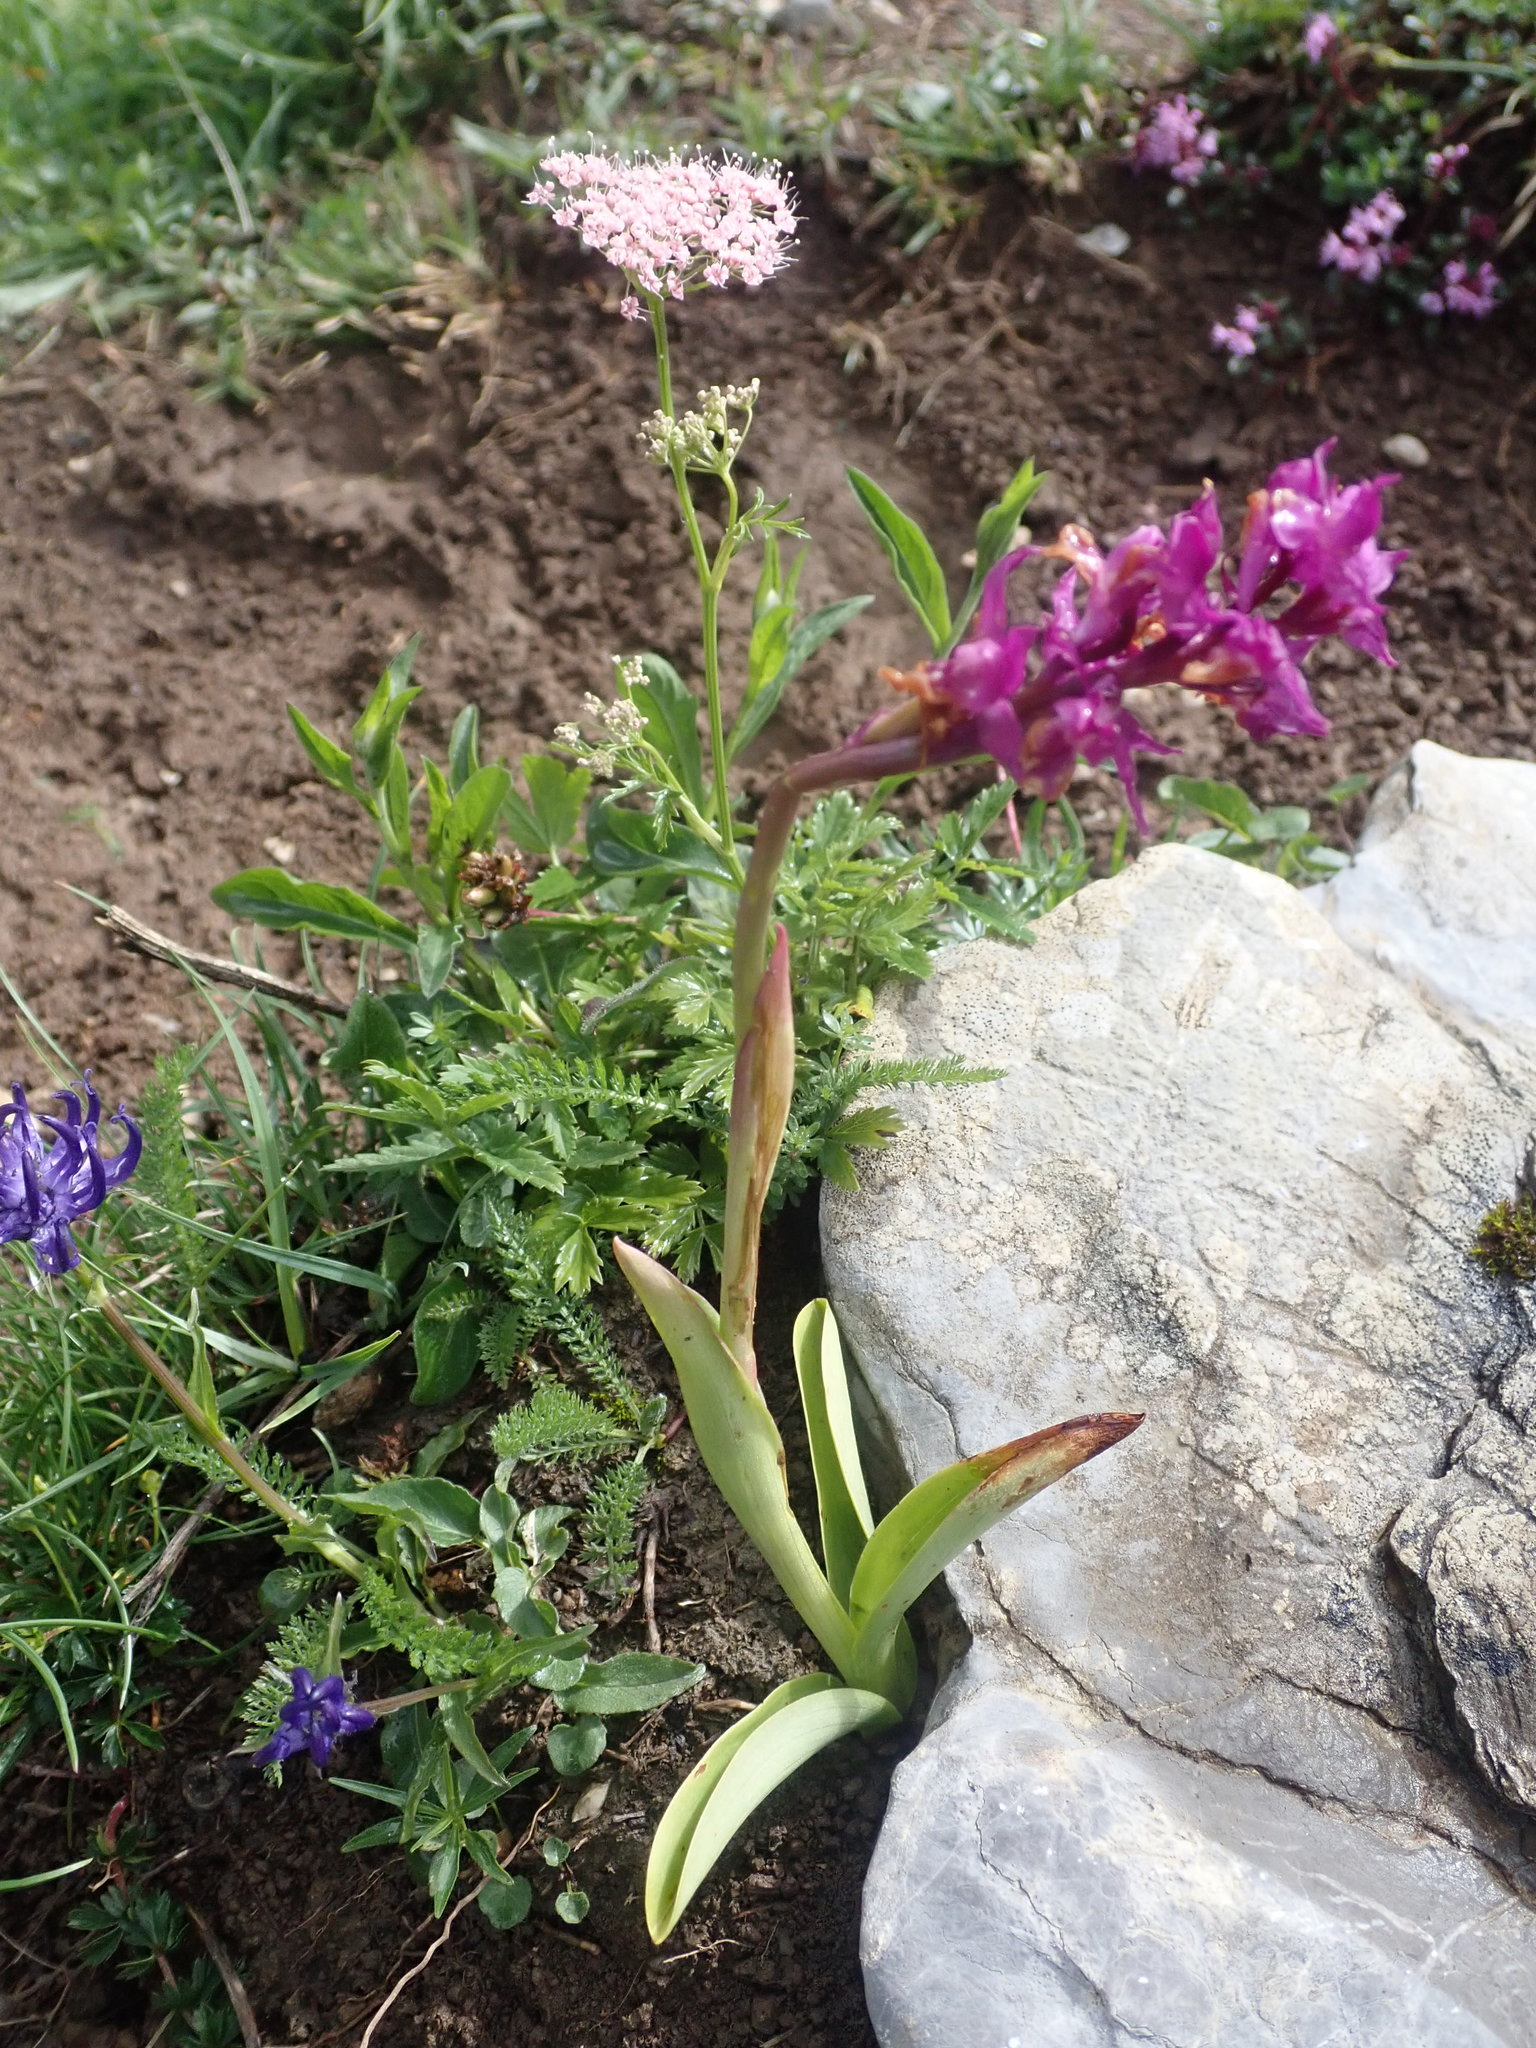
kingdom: Plantae
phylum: Tracheophyta
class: Liliopsida
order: Asparagales
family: Orchidaceae
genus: Orchis
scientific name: Orchis mascula
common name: Early-purple orchid
